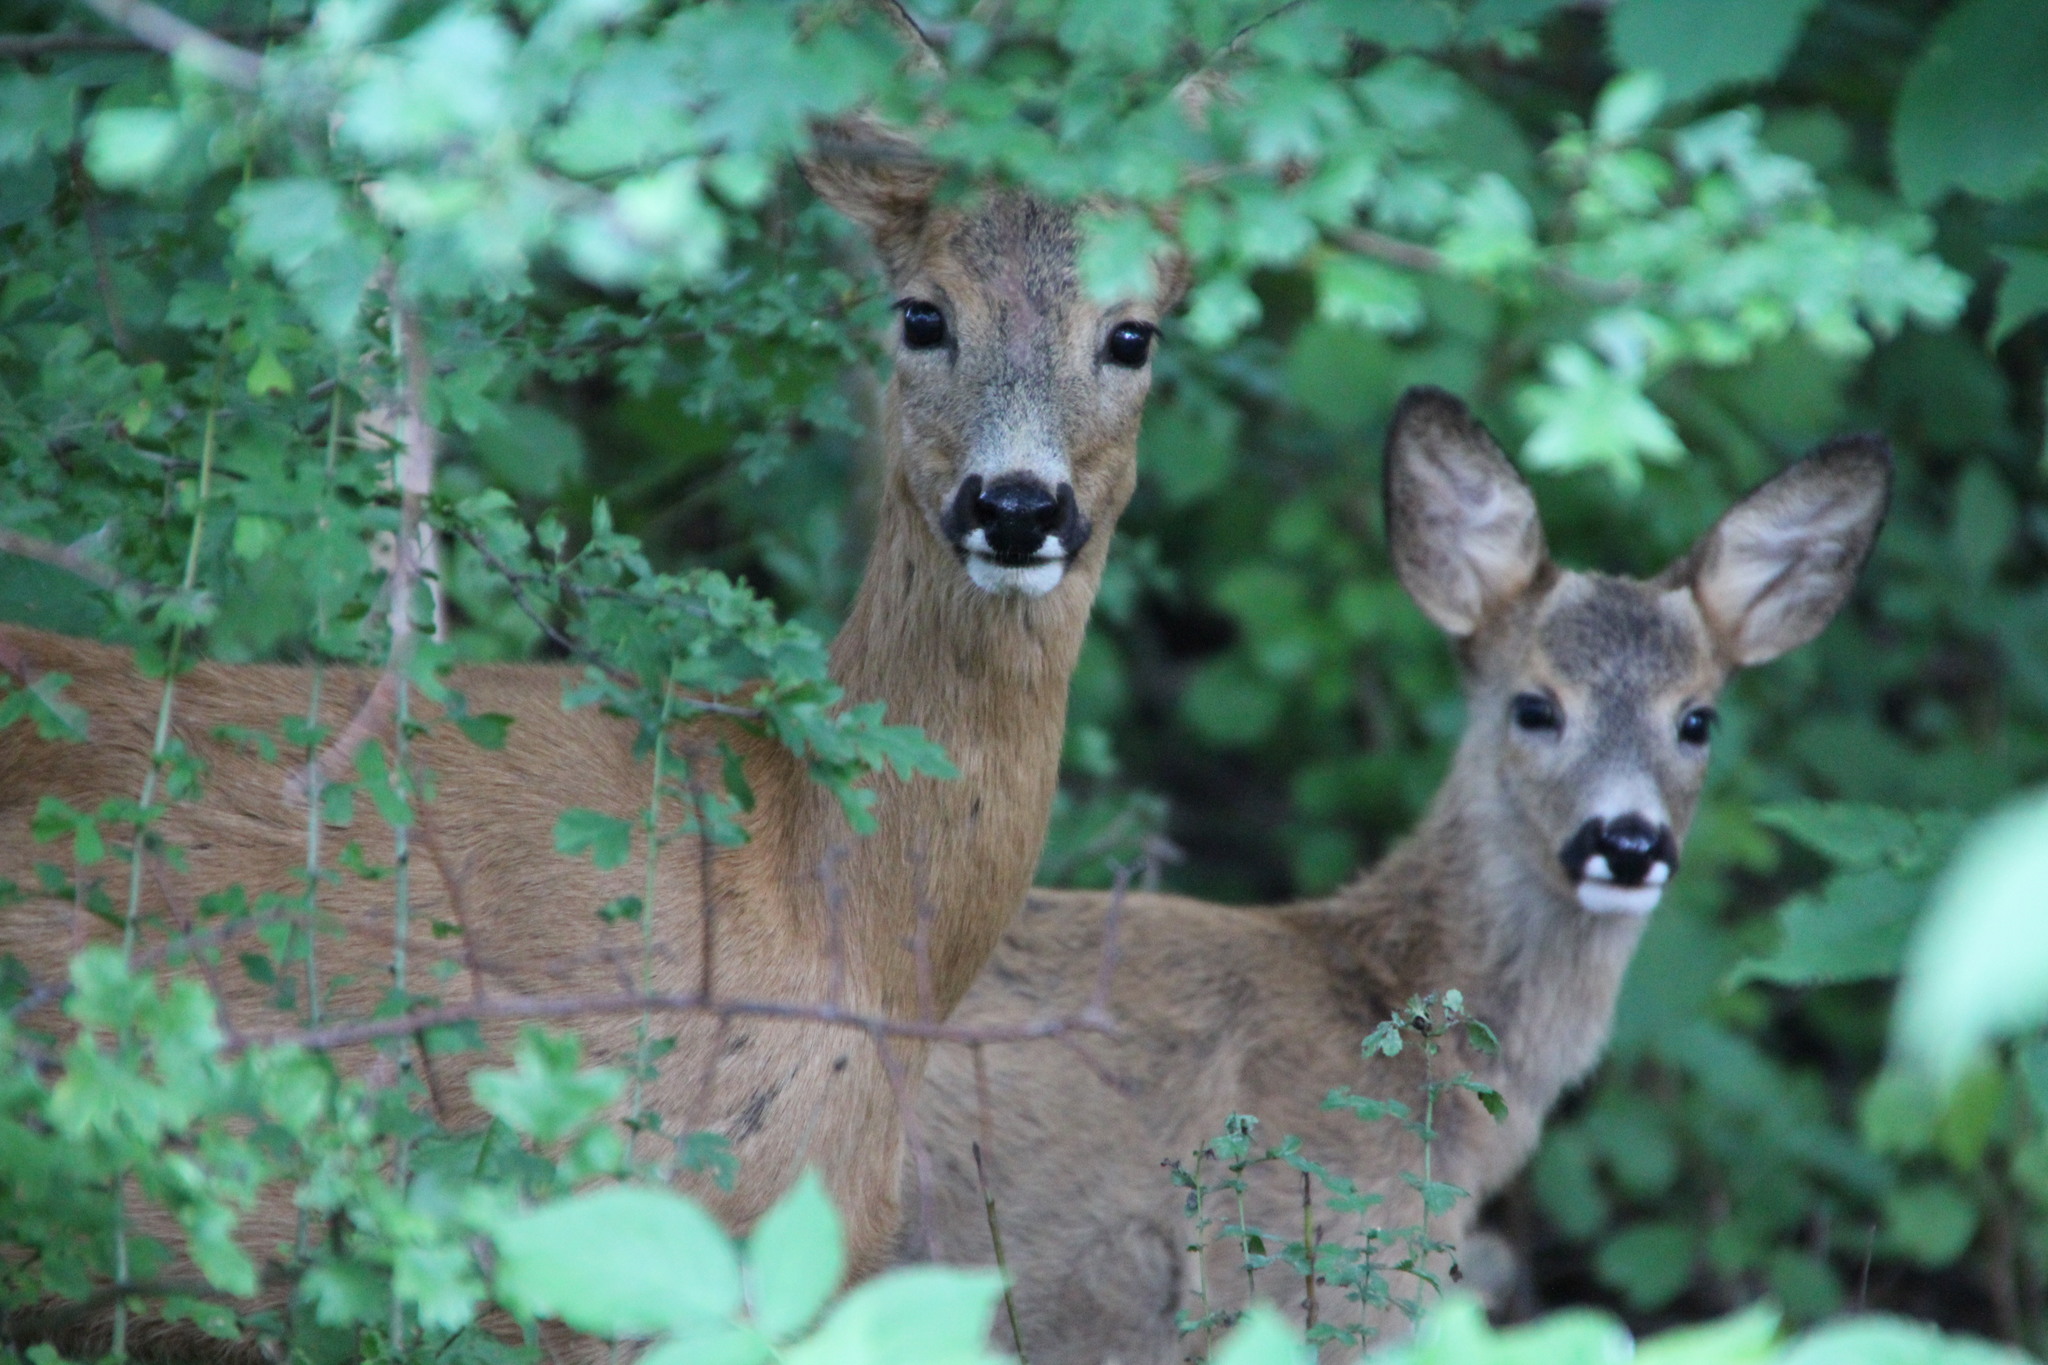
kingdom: Animalia
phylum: Chordata
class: Mammalia
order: Artiodactyla
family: Cervidae
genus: Capreolus
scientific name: Capreolus capreolus
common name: Western roe deer
